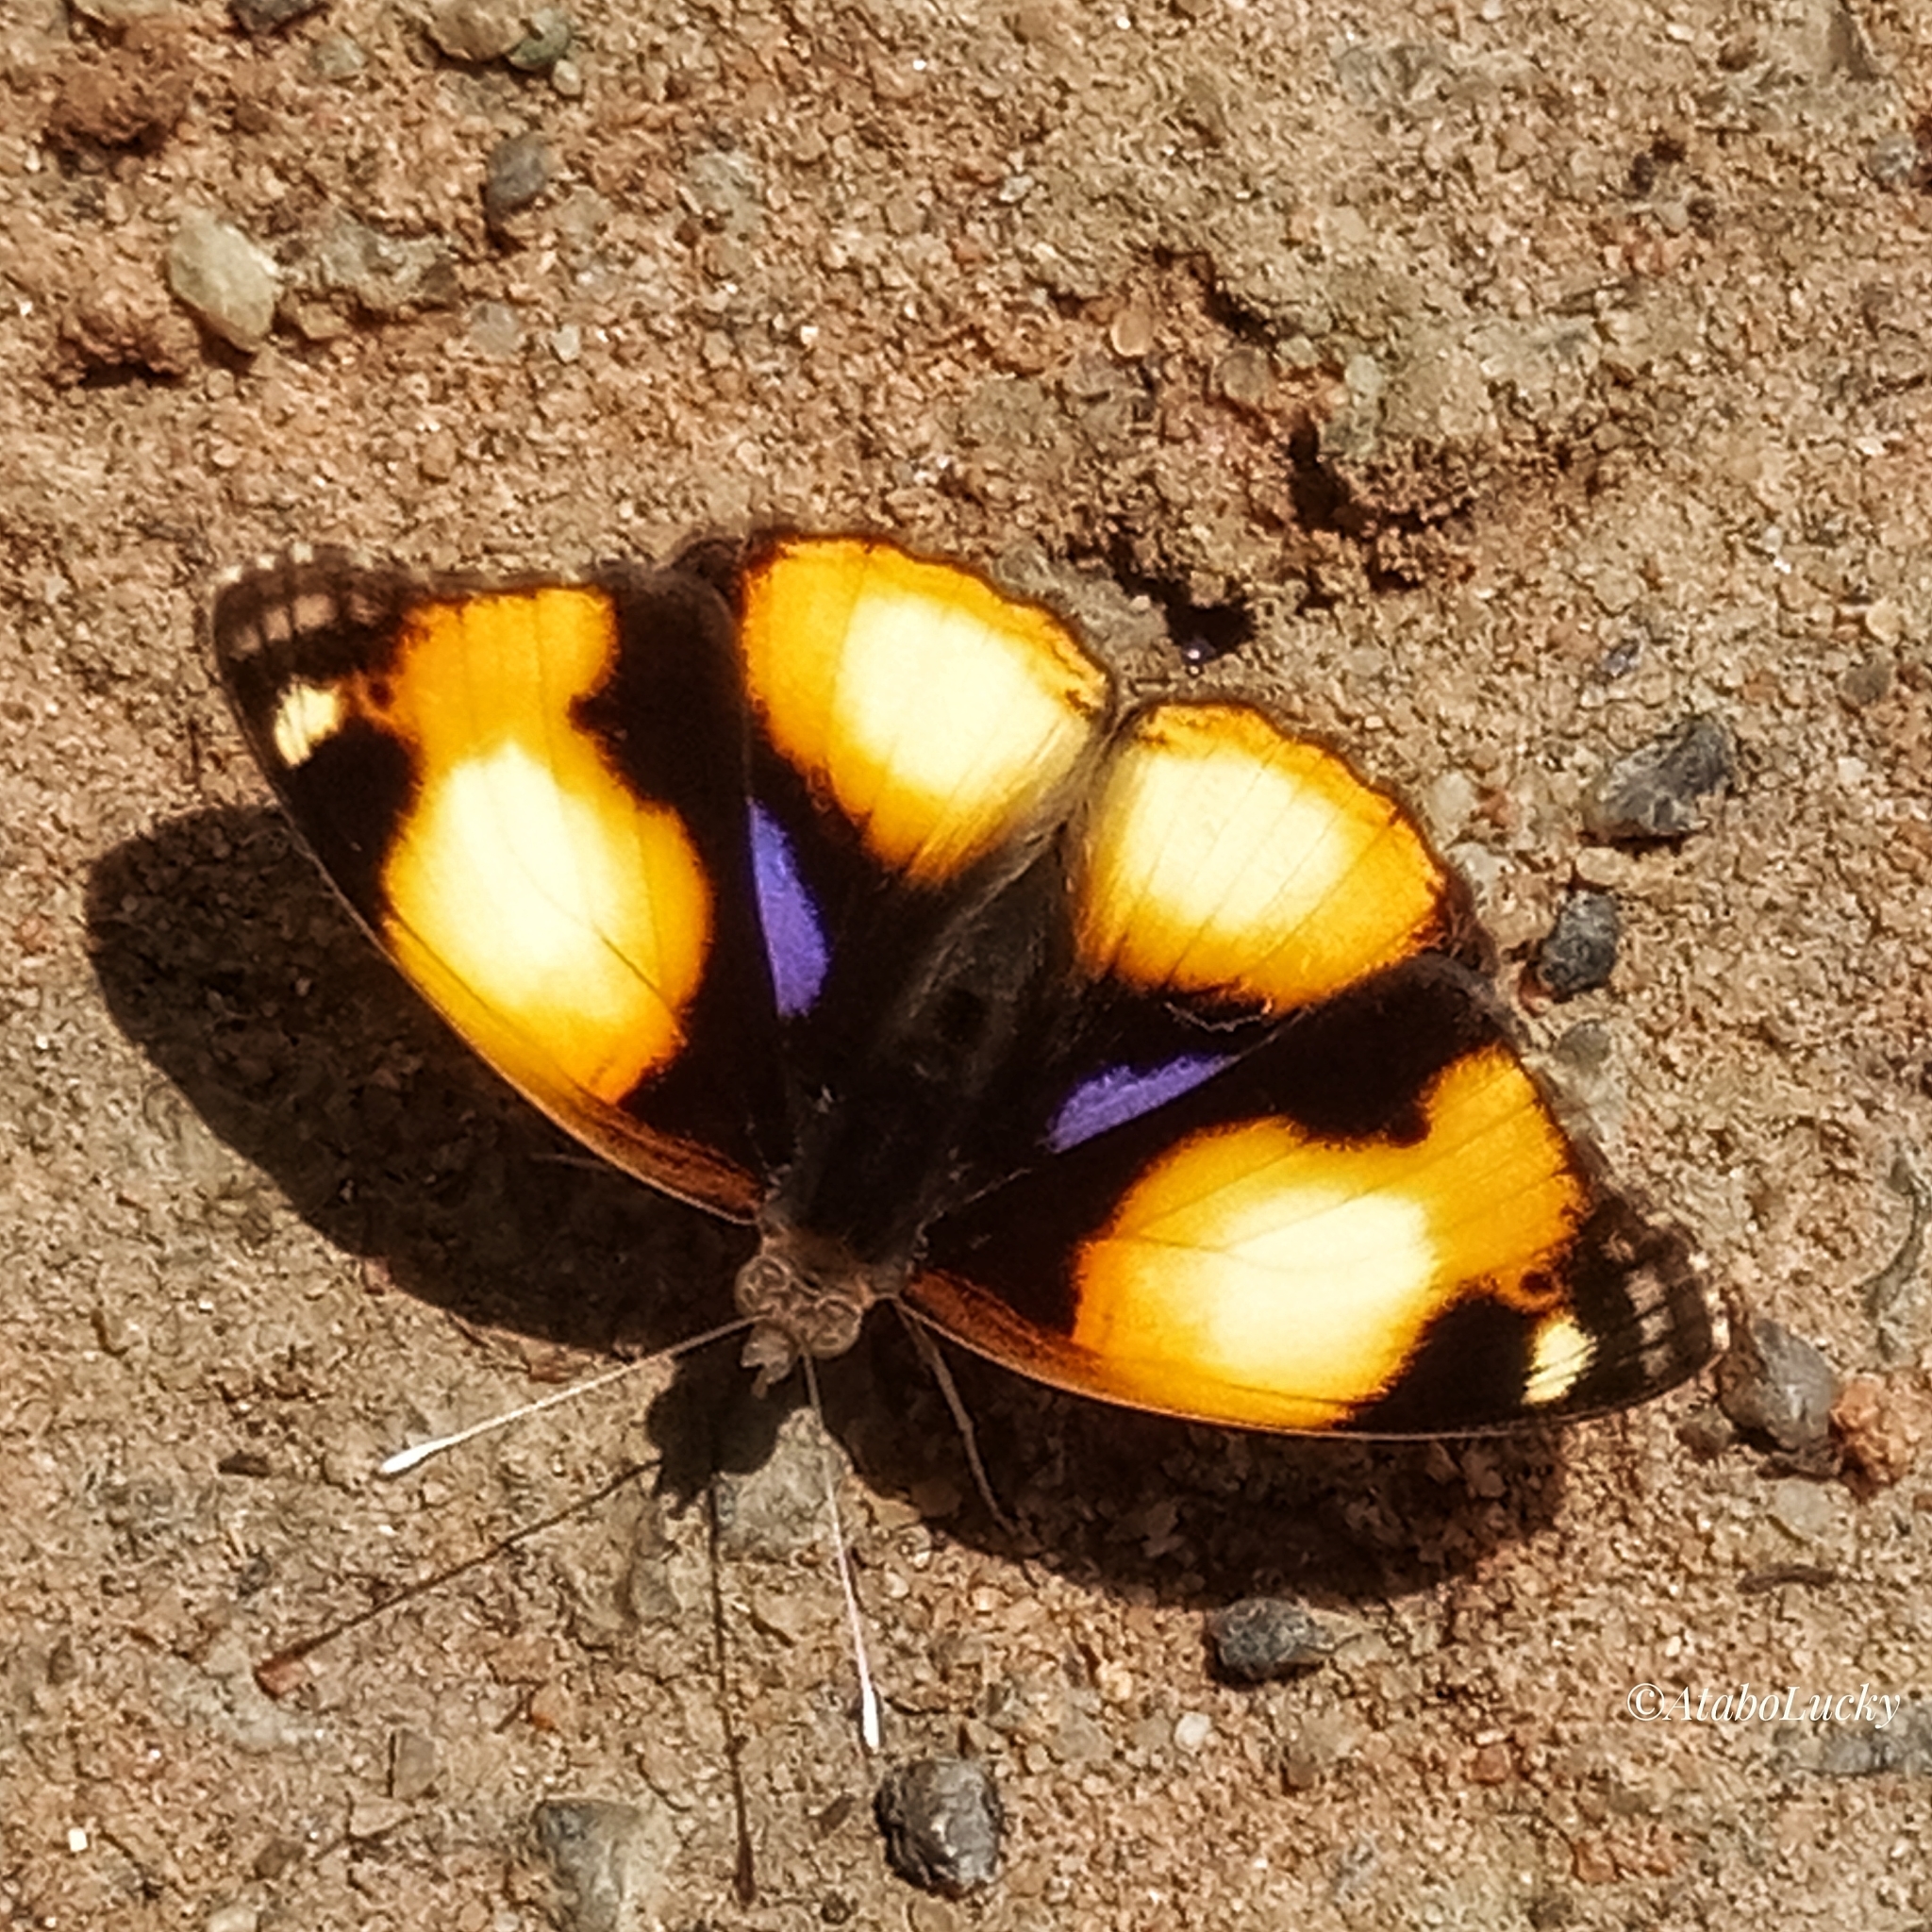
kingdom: Animalia
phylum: Arthropoda
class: Insecta
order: Lepidoptera
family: Nymphalidae
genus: Junonia
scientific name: Junonia hierta
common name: Yellow pansy
